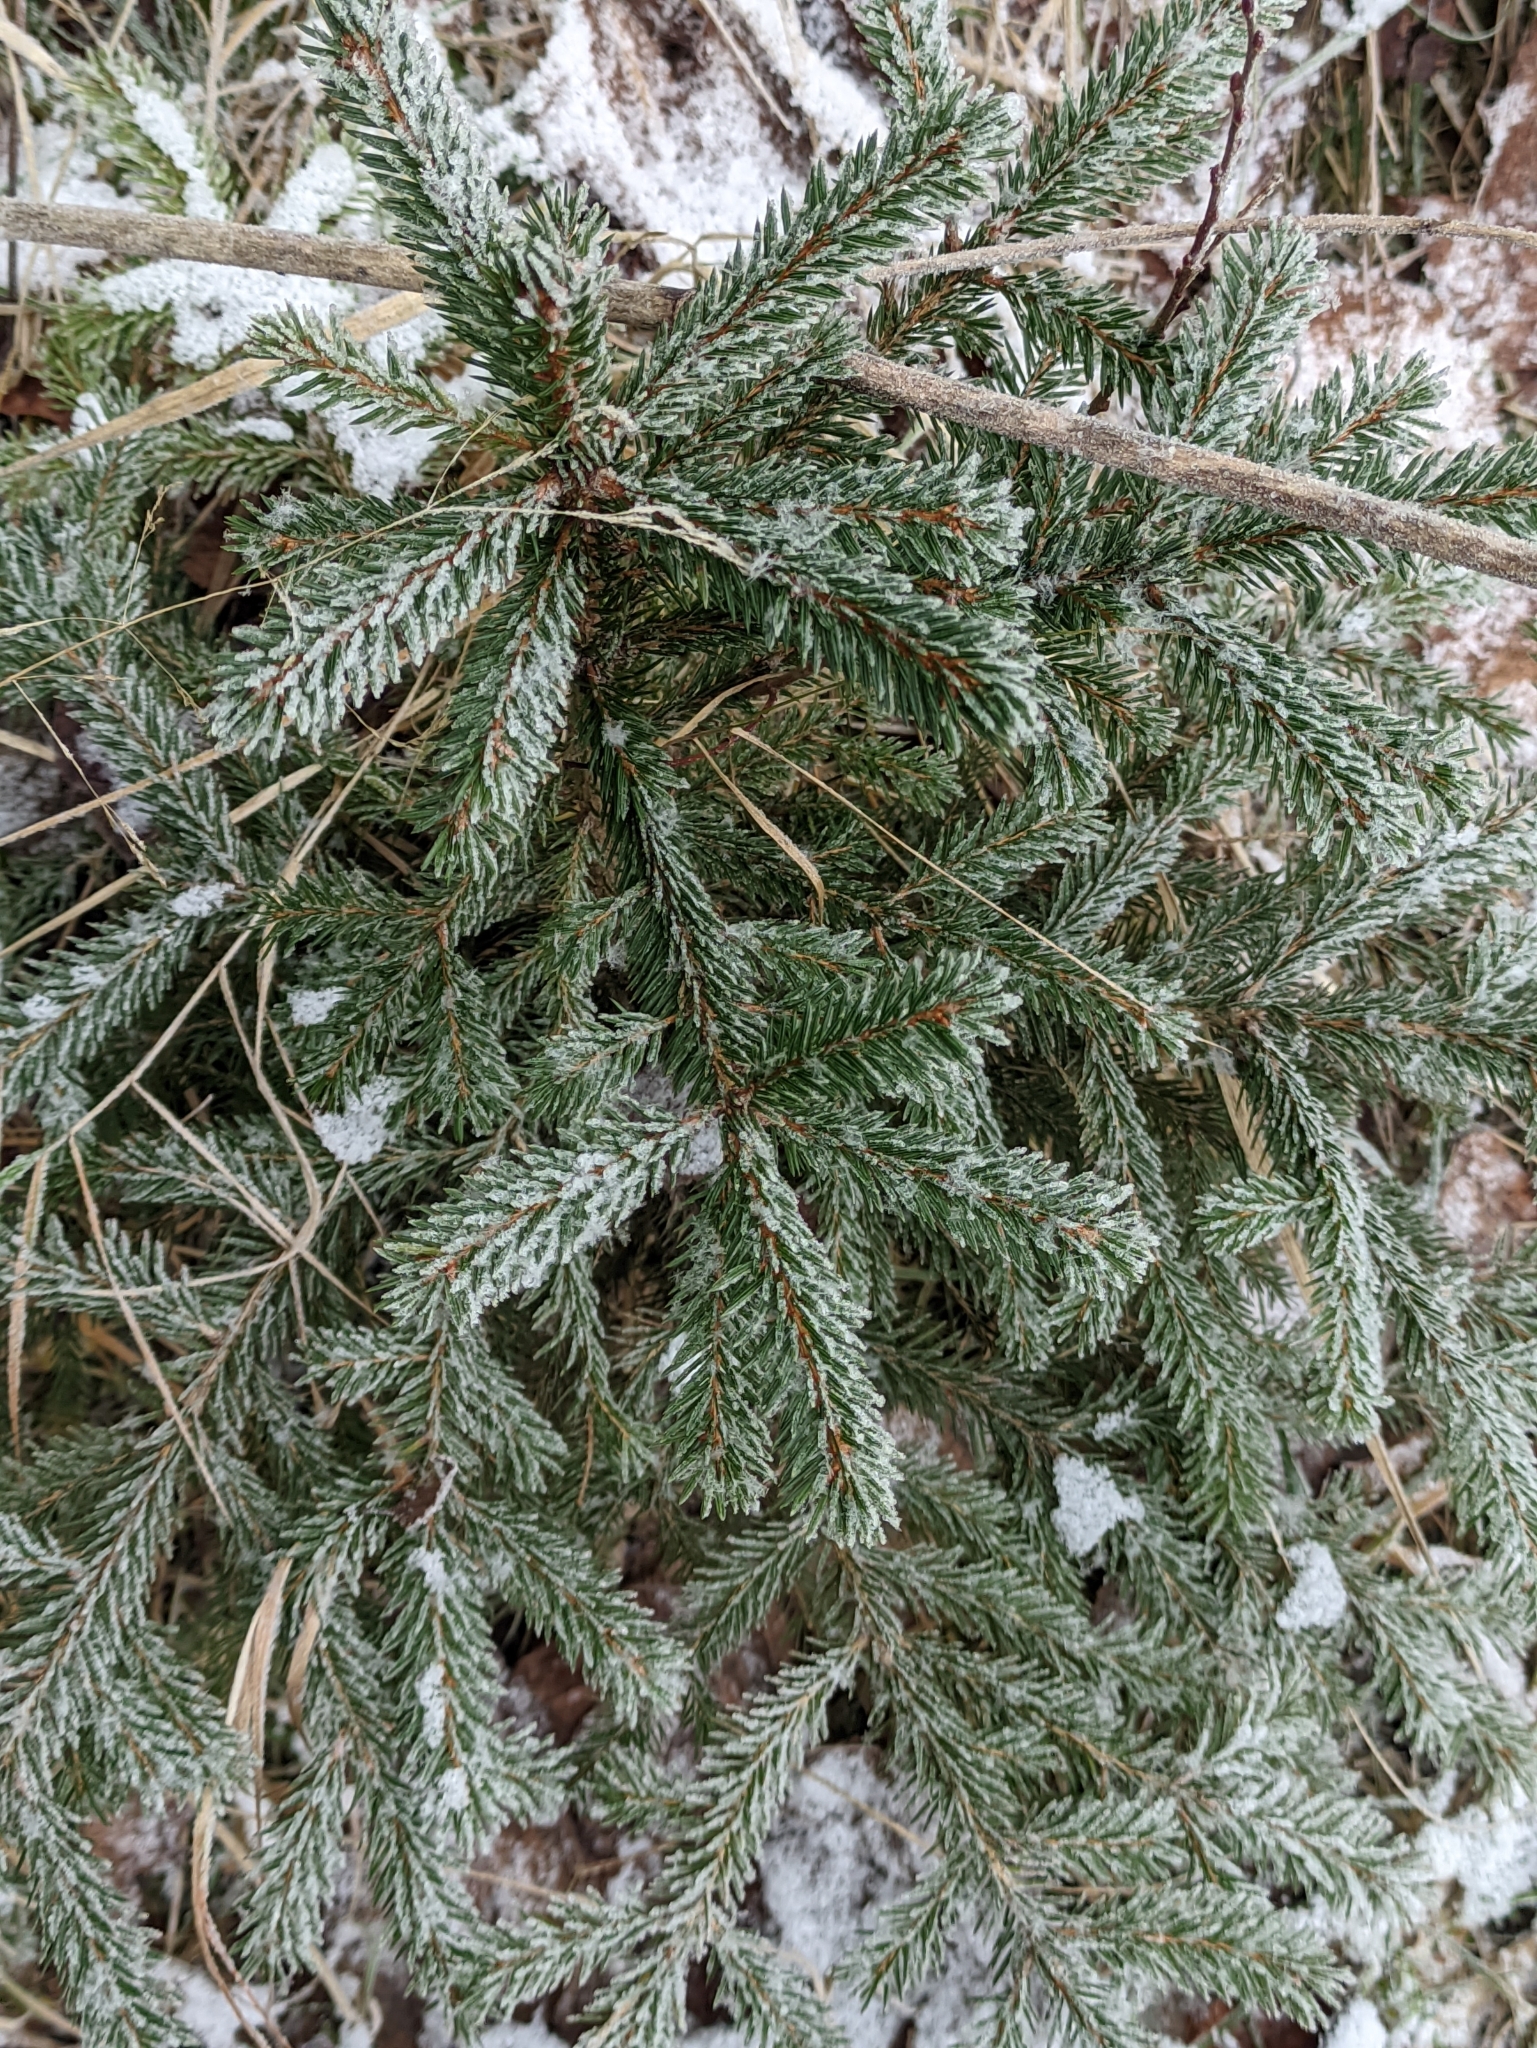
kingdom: Plantae
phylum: Tracheophyta
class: Pinopsida
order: Pinales
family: Pinaceae
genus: Picea
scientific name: Picea abies
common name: Norway spruce
